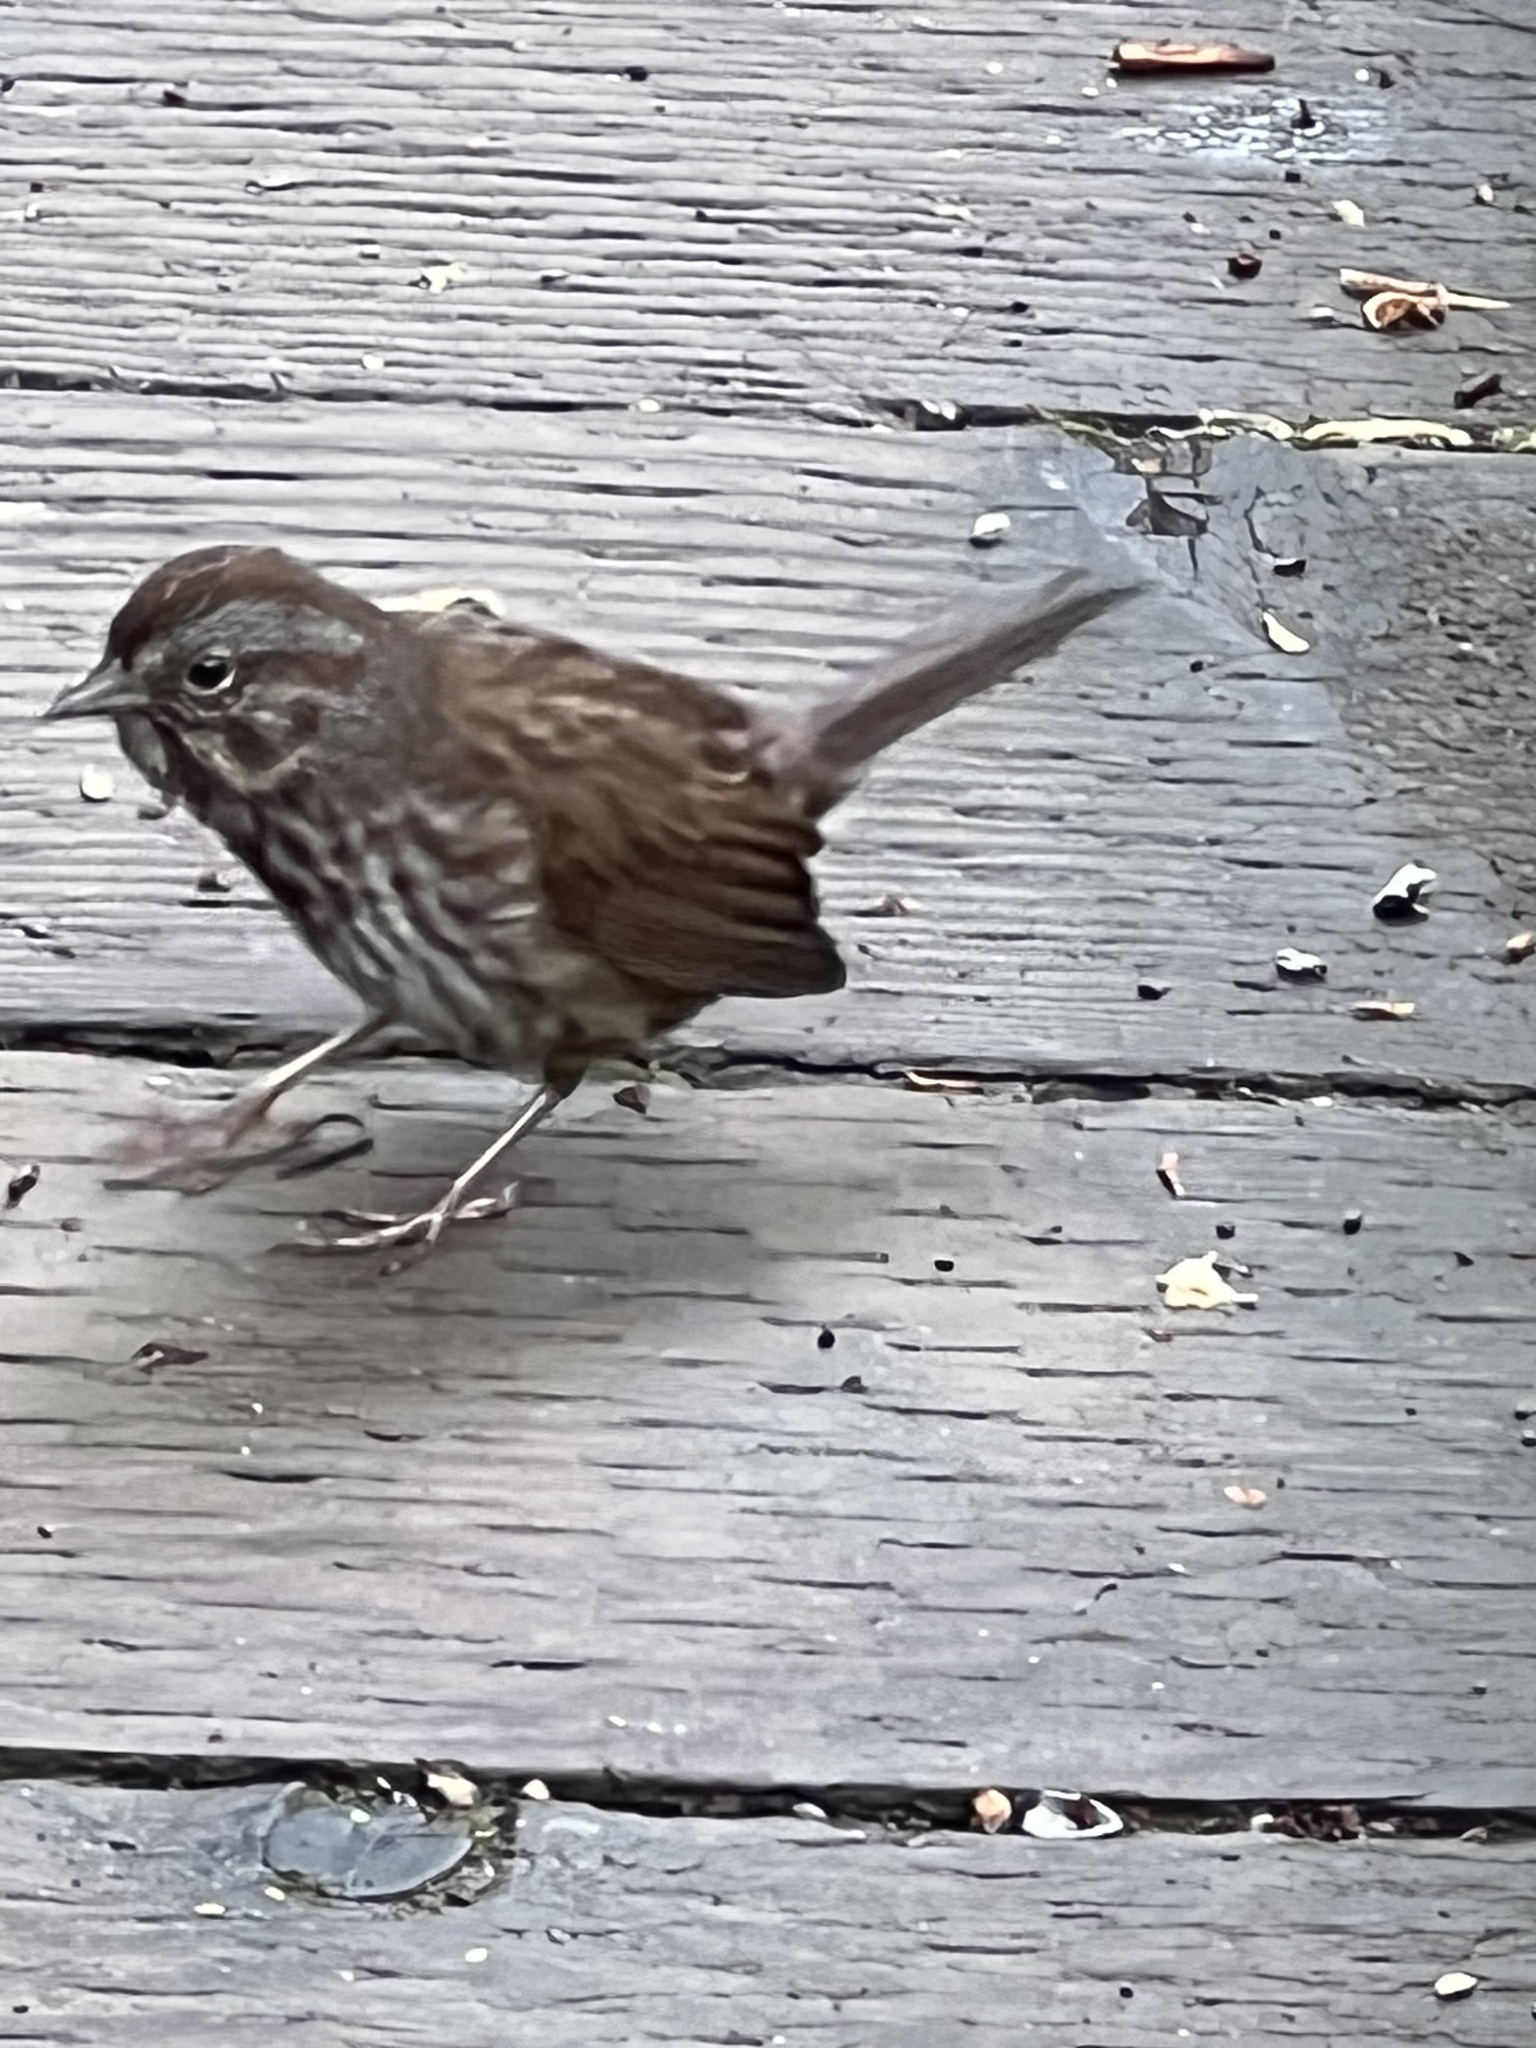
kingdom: Animalia
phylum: Chordata
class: Aves
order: Passeriformes
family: Passerellidae
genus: Melospiza
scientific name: Melospiza melodia
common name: Song sparrow
